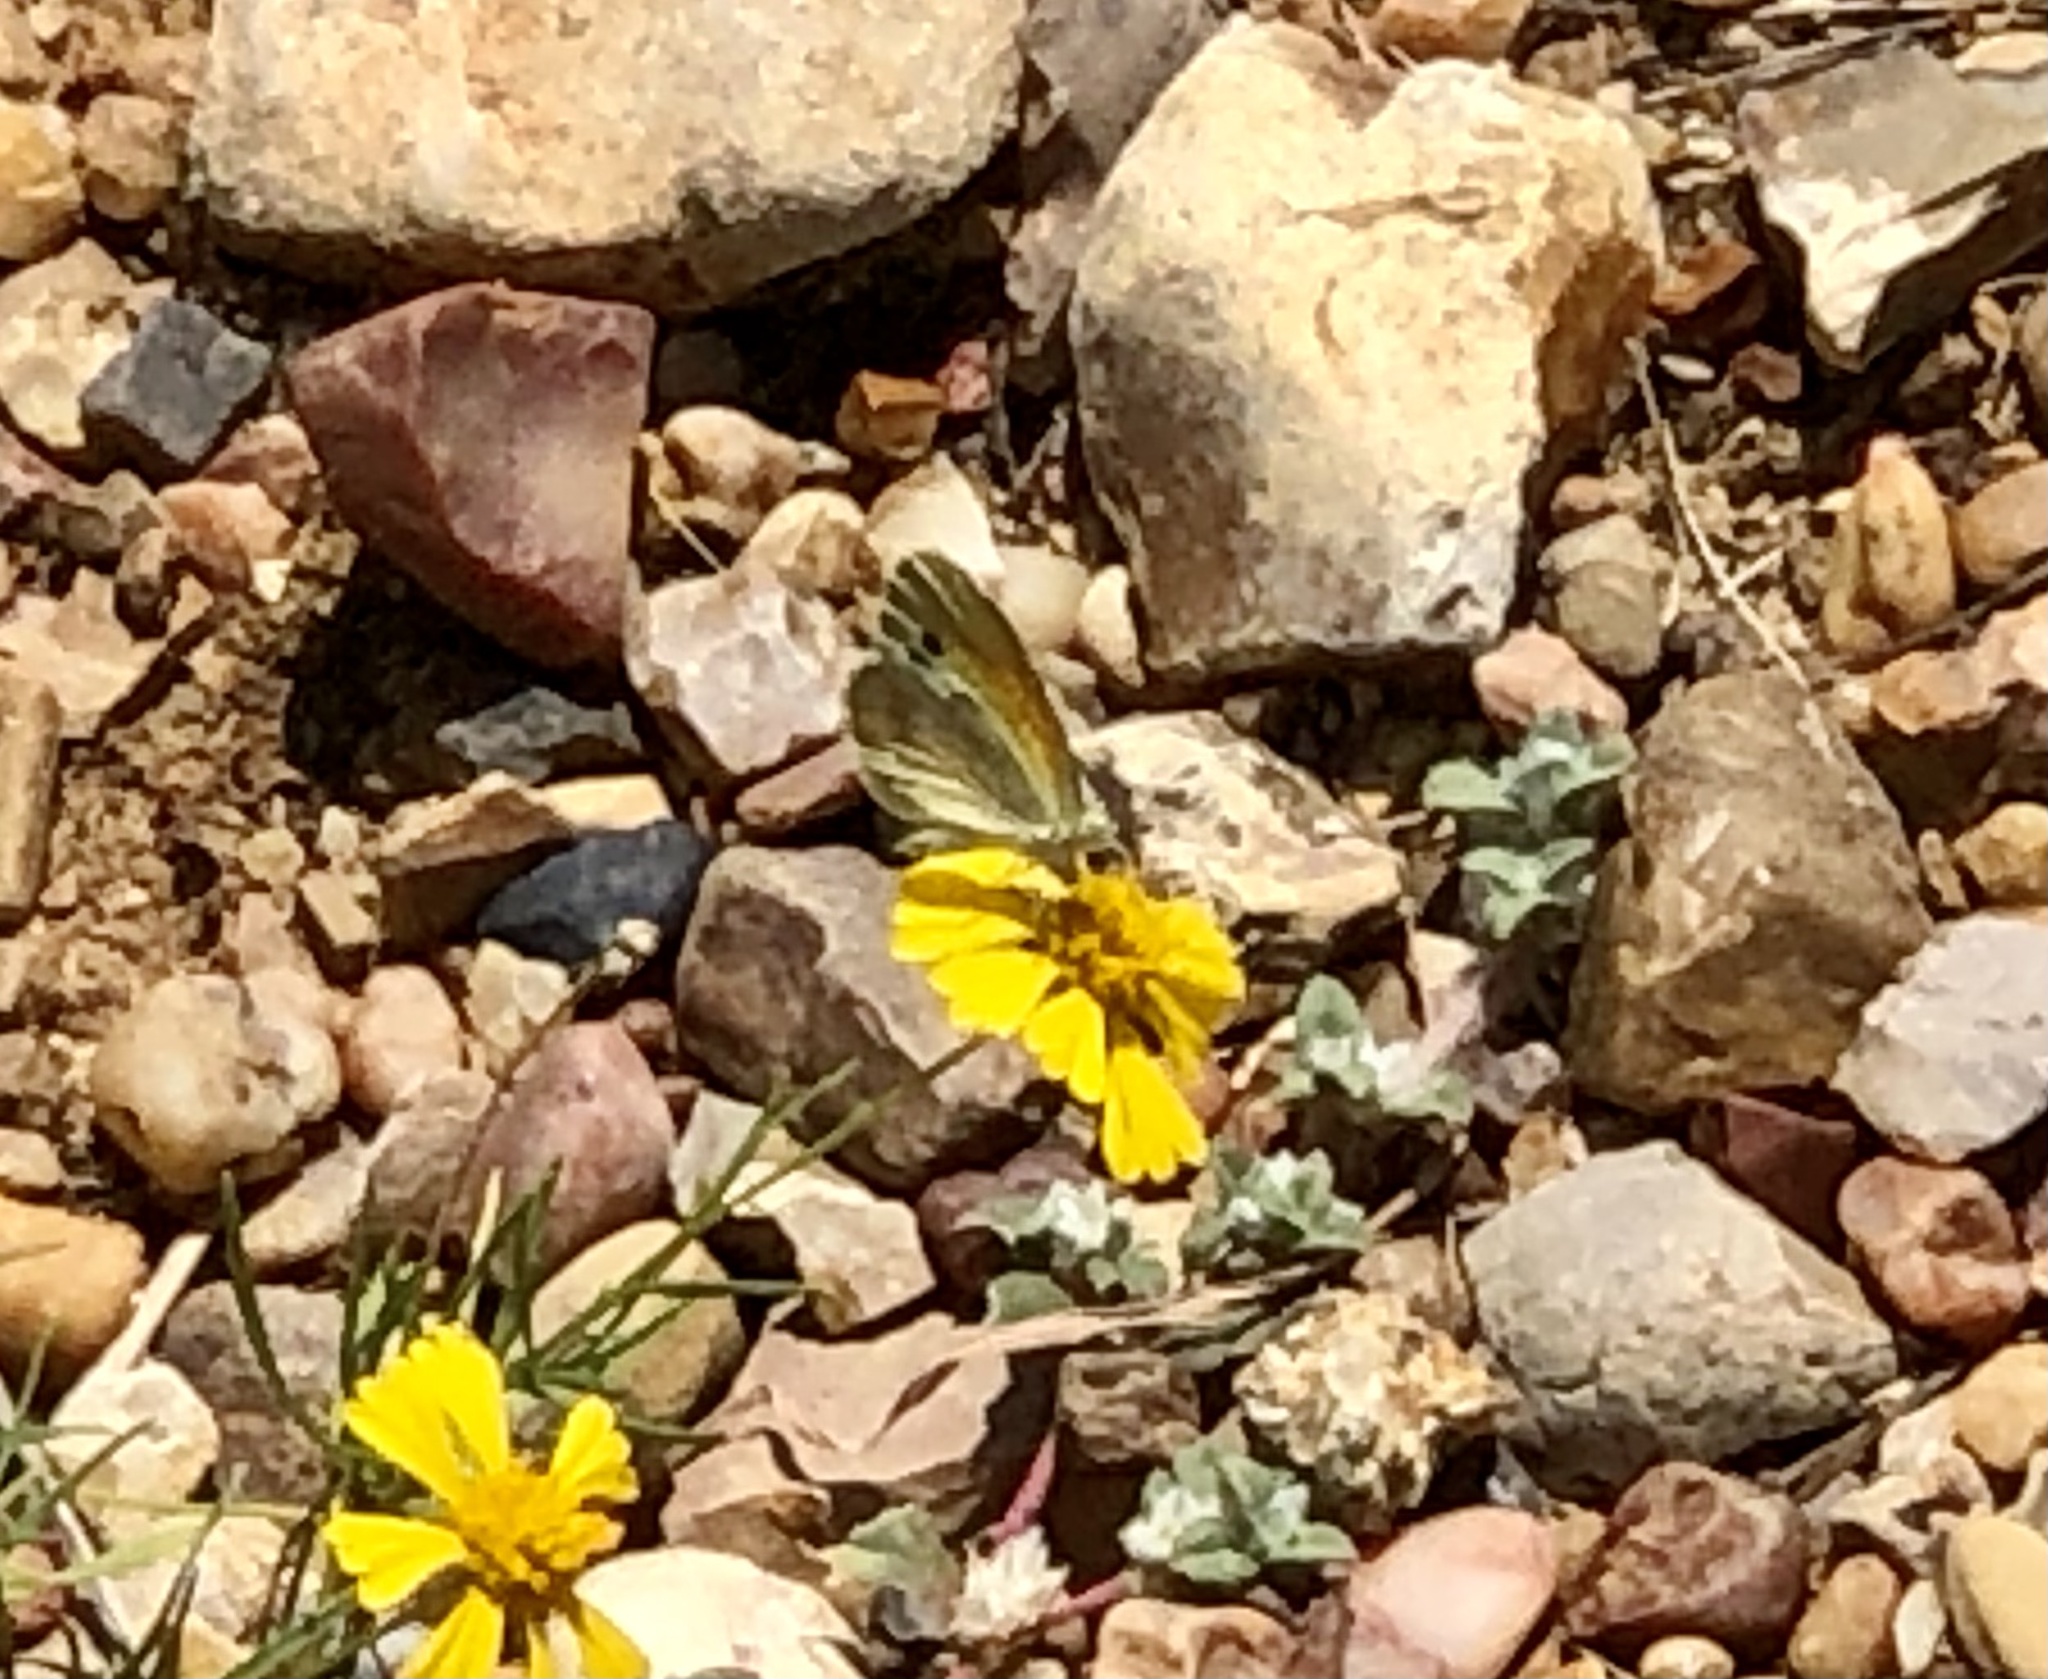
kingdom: Animalia
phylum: Arthropoda
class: Insecta
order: Lepidoptera
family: Pieridae
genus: Nathalis
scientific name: Nathalis iole
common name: Dainty sulphur
